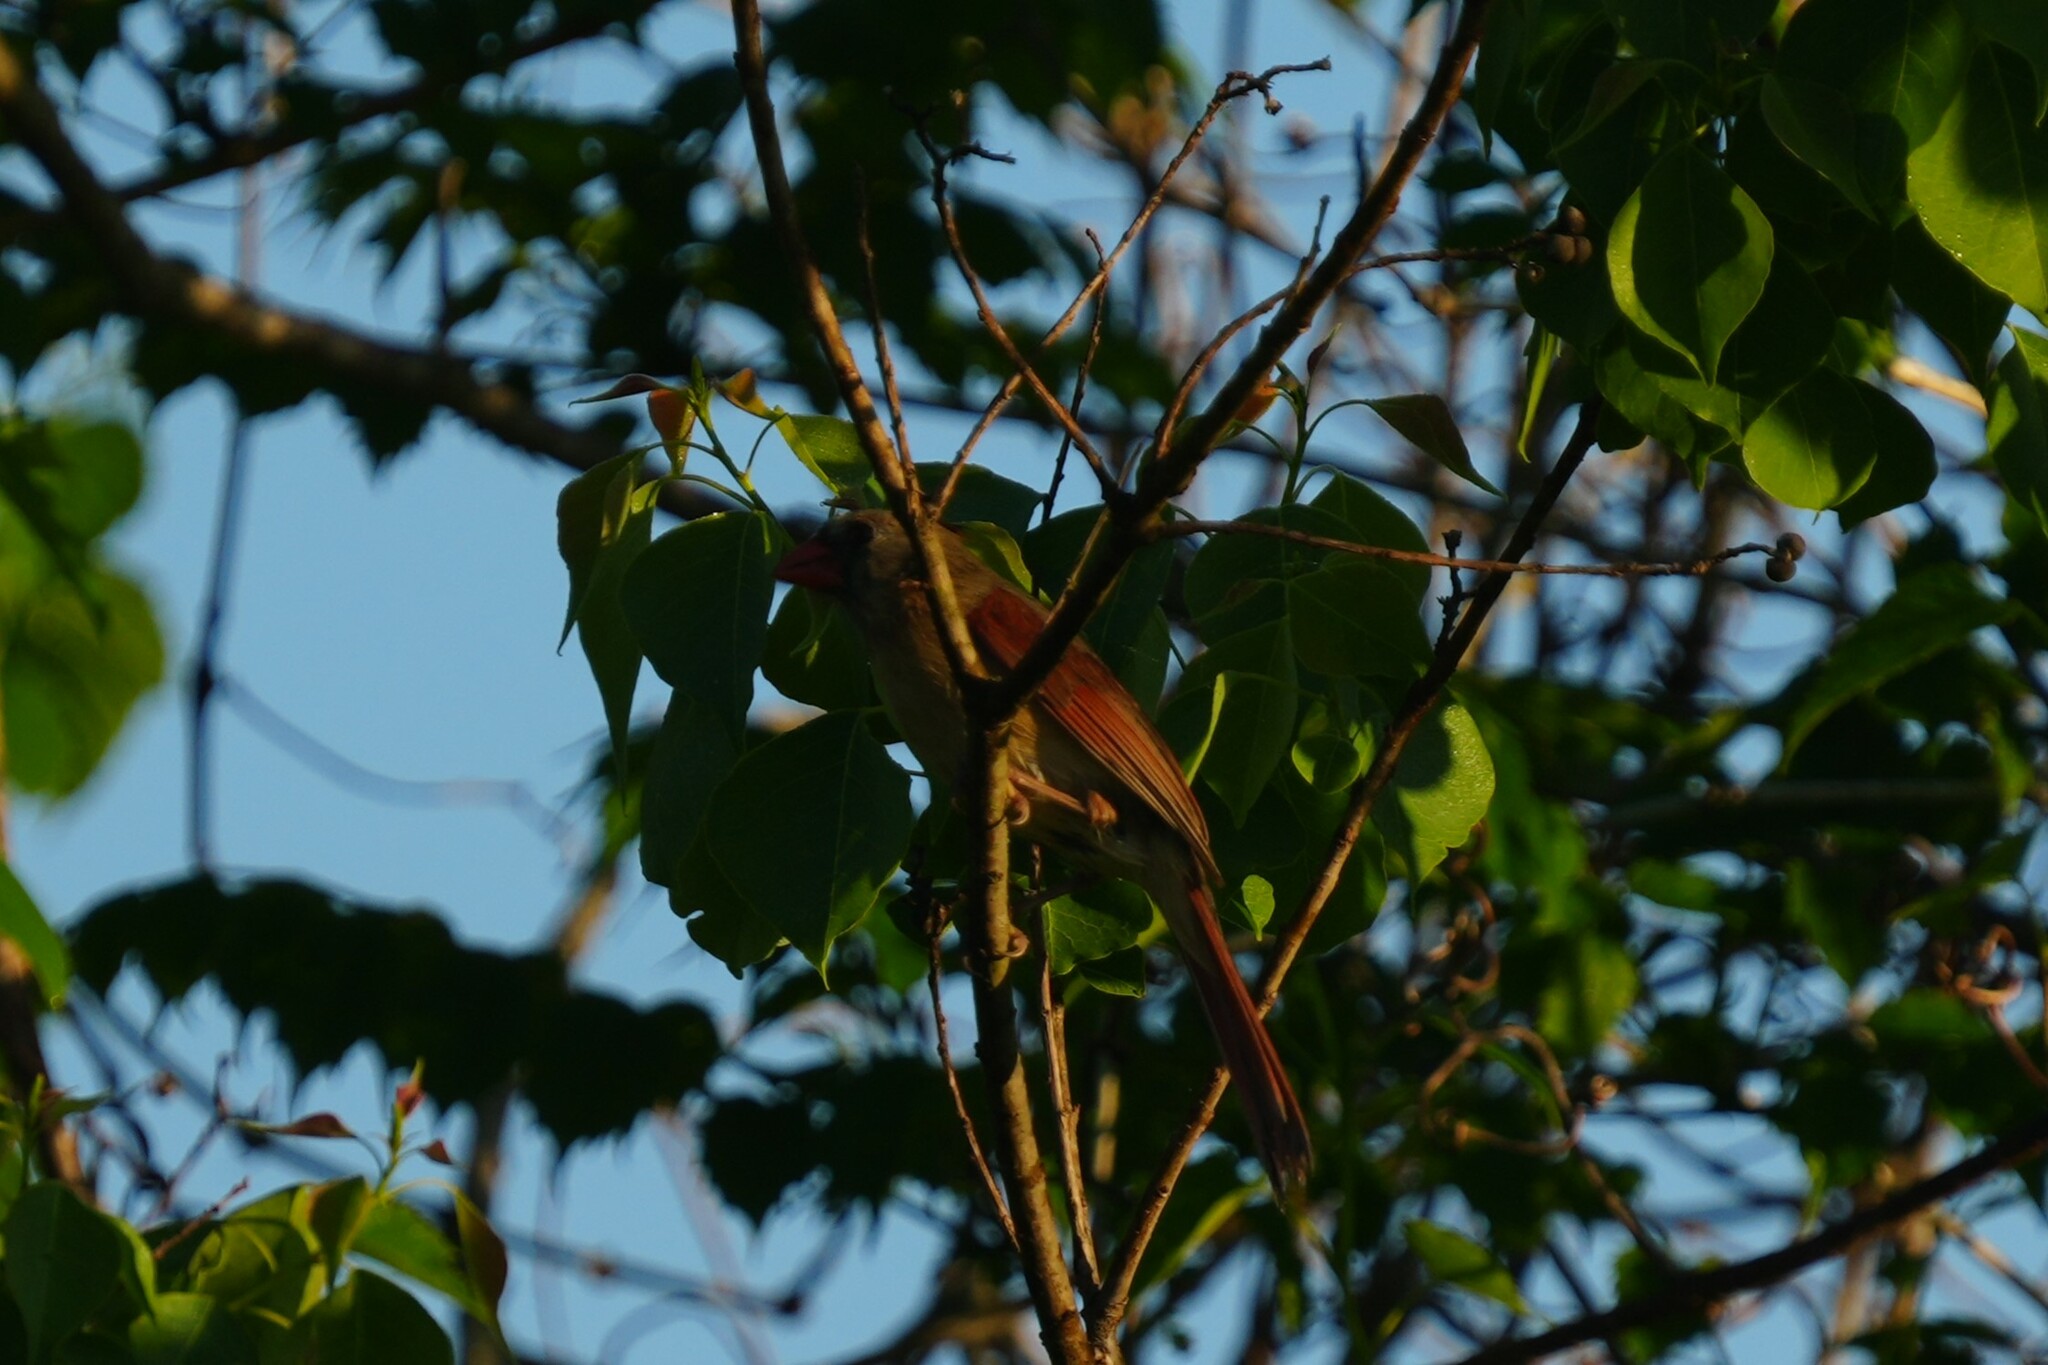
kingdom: Animalia
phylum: Chordata
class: Aves
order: Passeriformes
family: Cardinalidae
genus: Cardinalis
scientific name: Cardinalis cardinalis
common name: Northern cardinal
